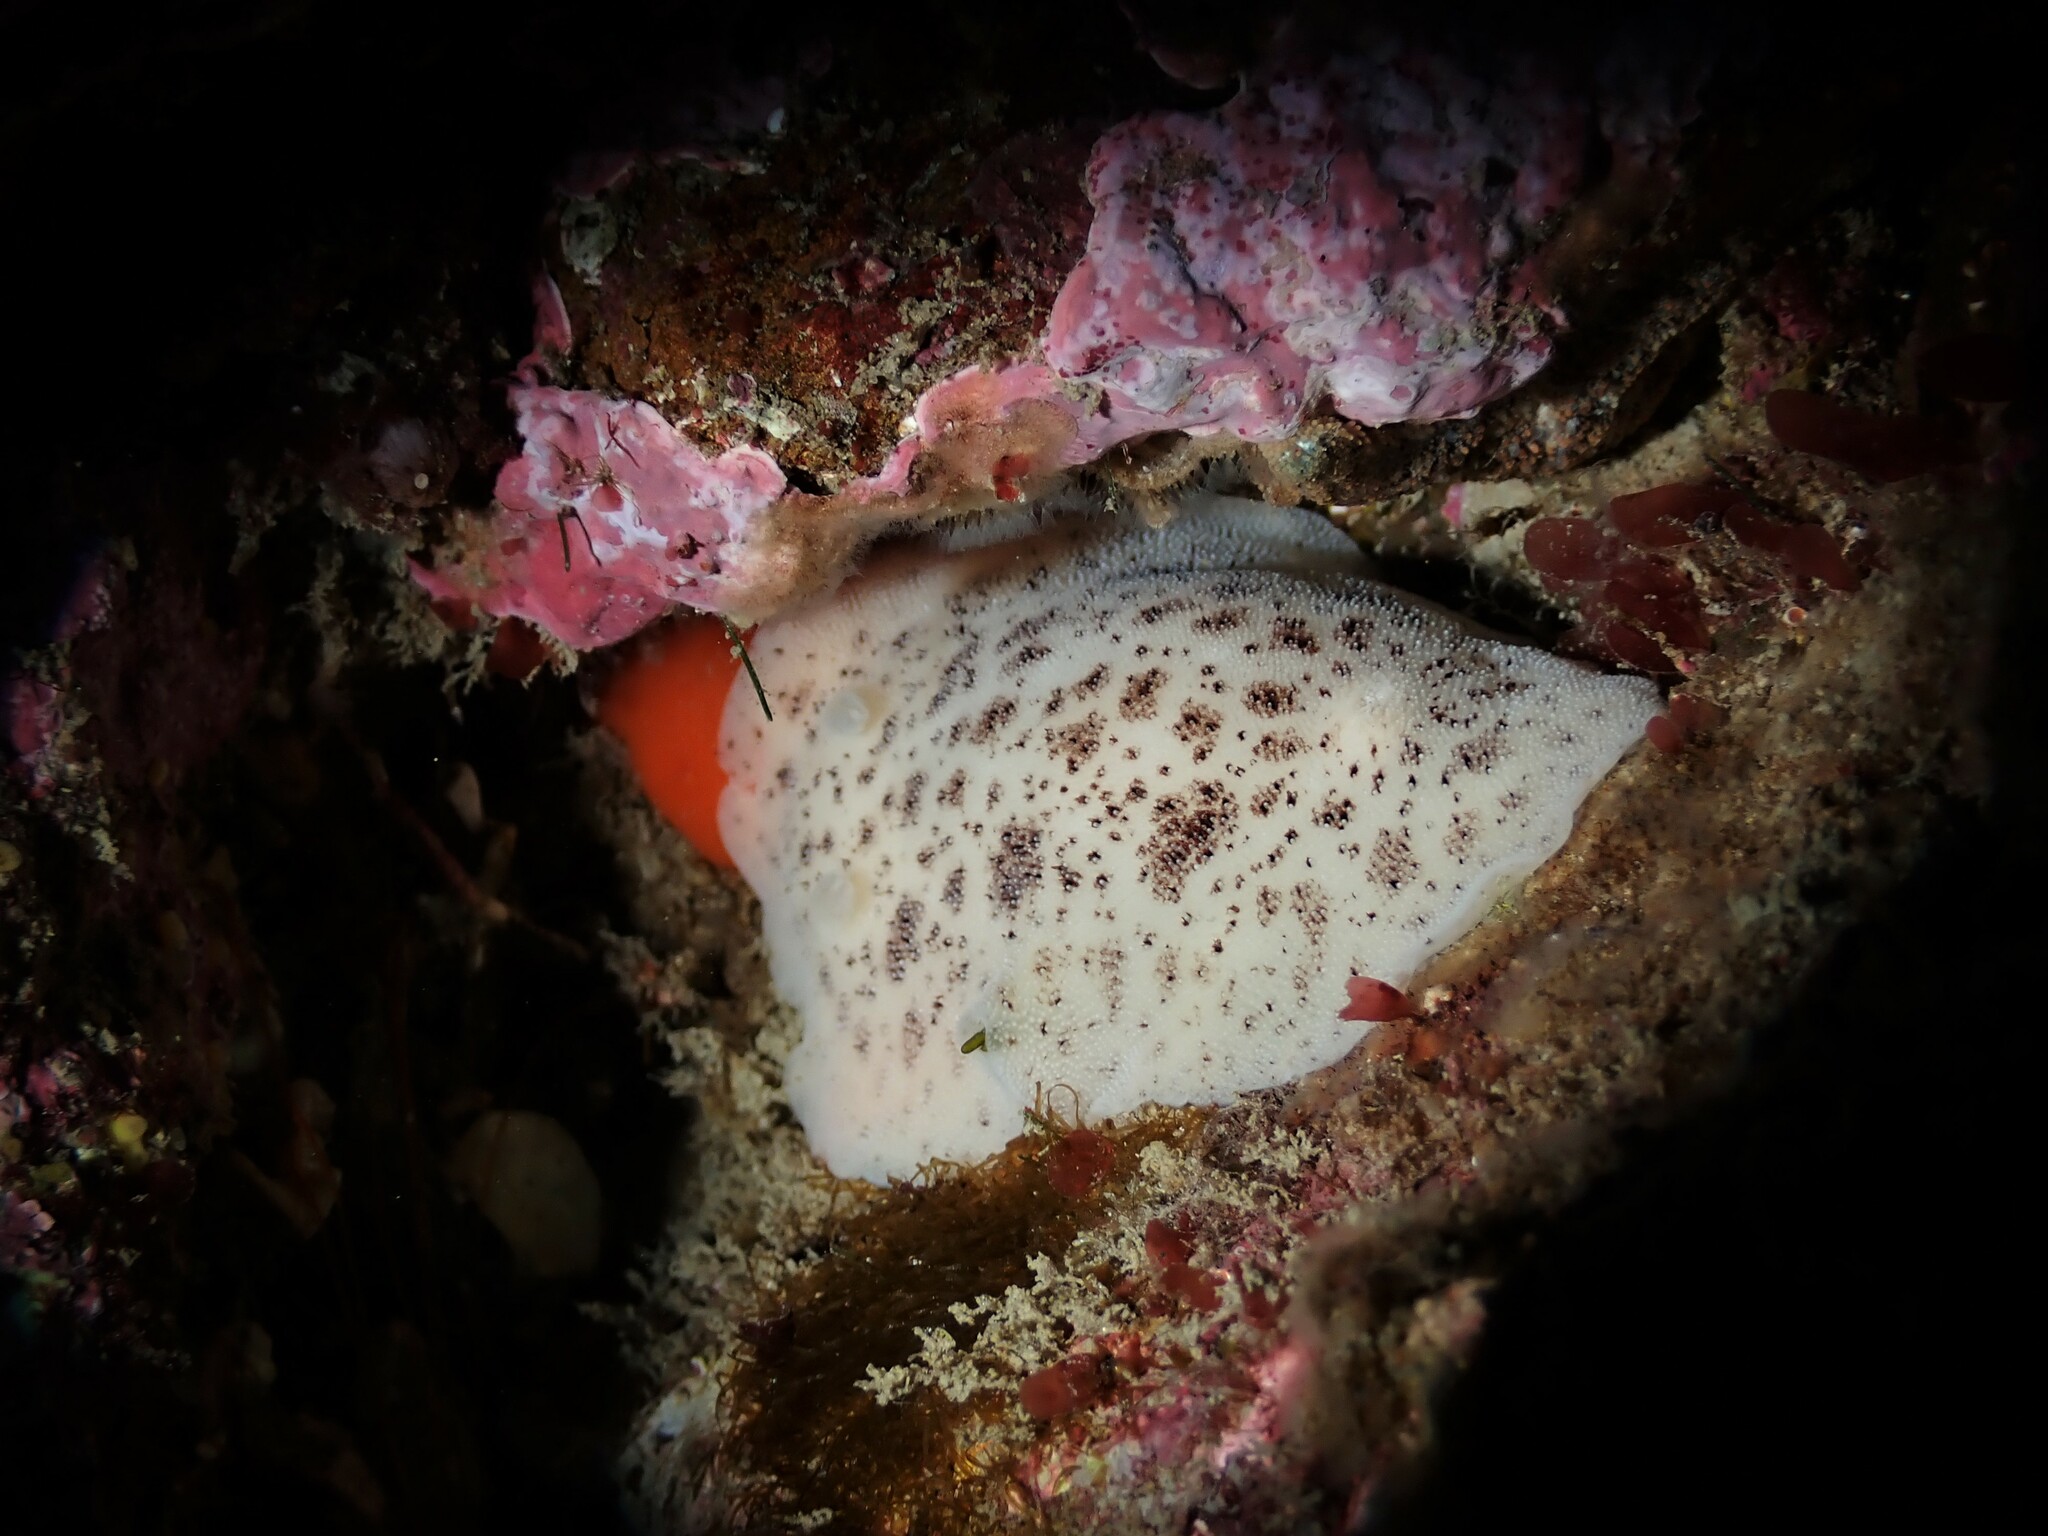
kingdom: Animalia
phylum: Mollusca
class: Gastropoda
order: Nudibranchia
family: Discodorididae
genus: Alloiodoris
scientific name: Alloiodoris lanuginata
